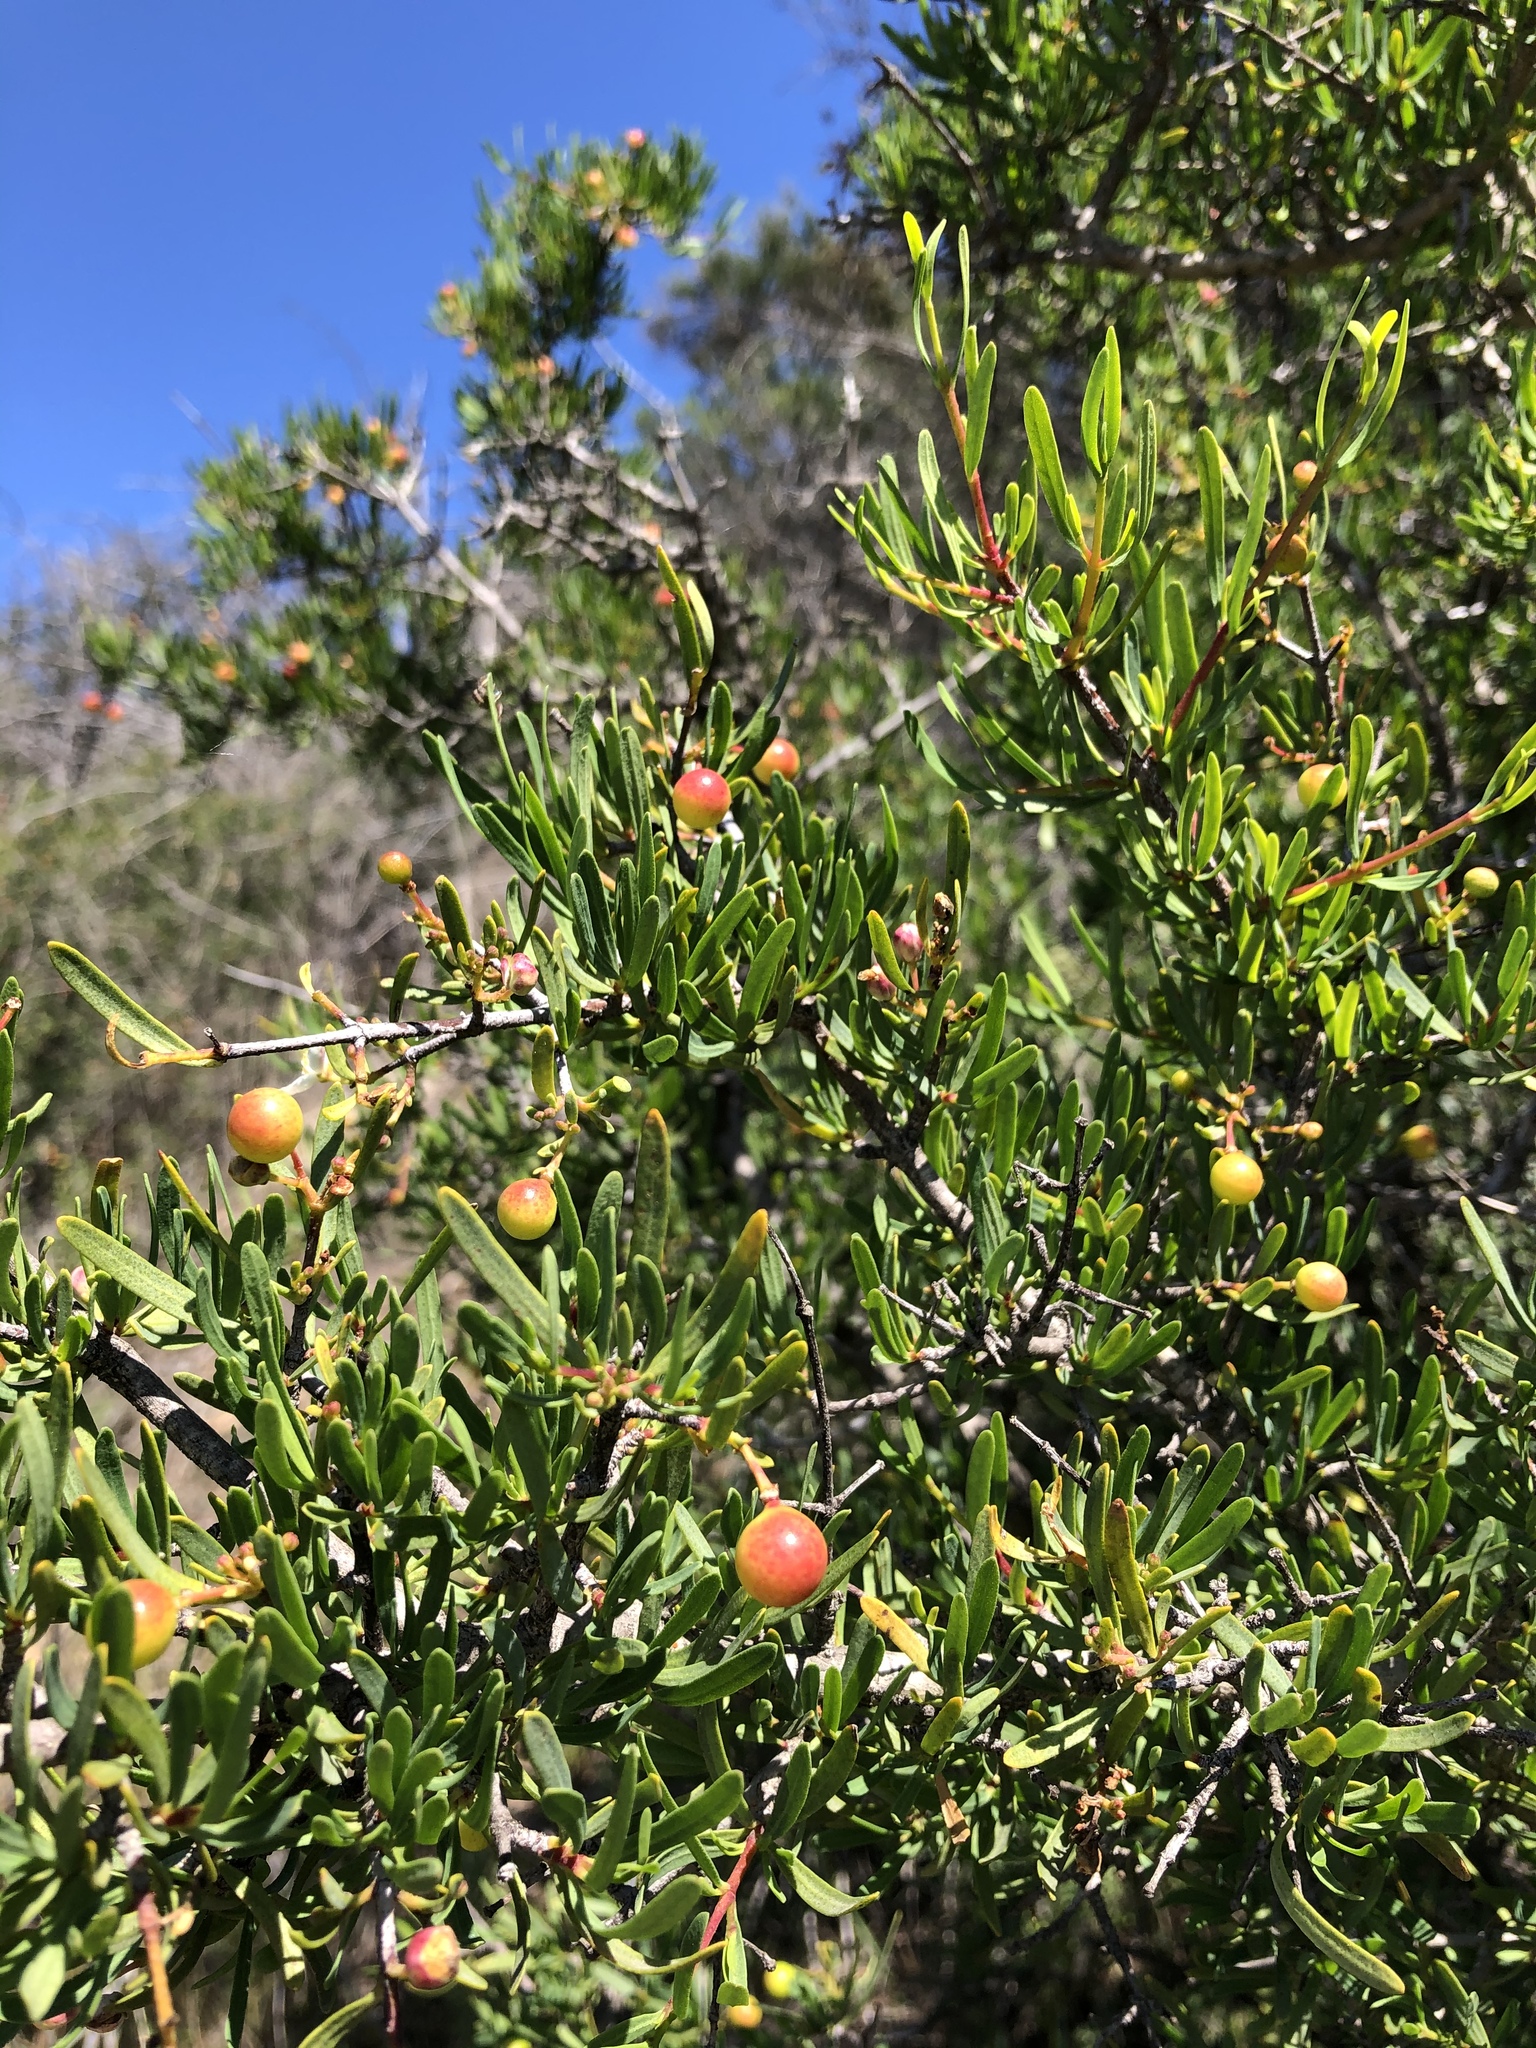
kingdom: Plantae
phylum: Tracheophyta
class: Magnoliopsida
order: Sapindales
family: Rutaceae
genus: Cneoridium
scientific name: Cneoridium dumosum
